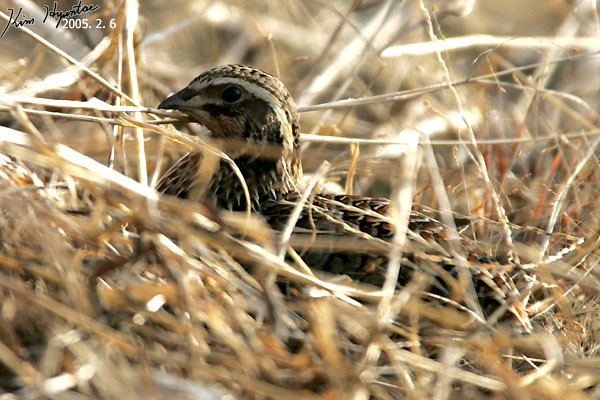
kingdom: Animalia
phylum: Chordata
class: Aves
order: Galliformes
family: Phasianidae
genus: Coturnix
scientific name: Coturnix japonica
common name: Japanese quail
